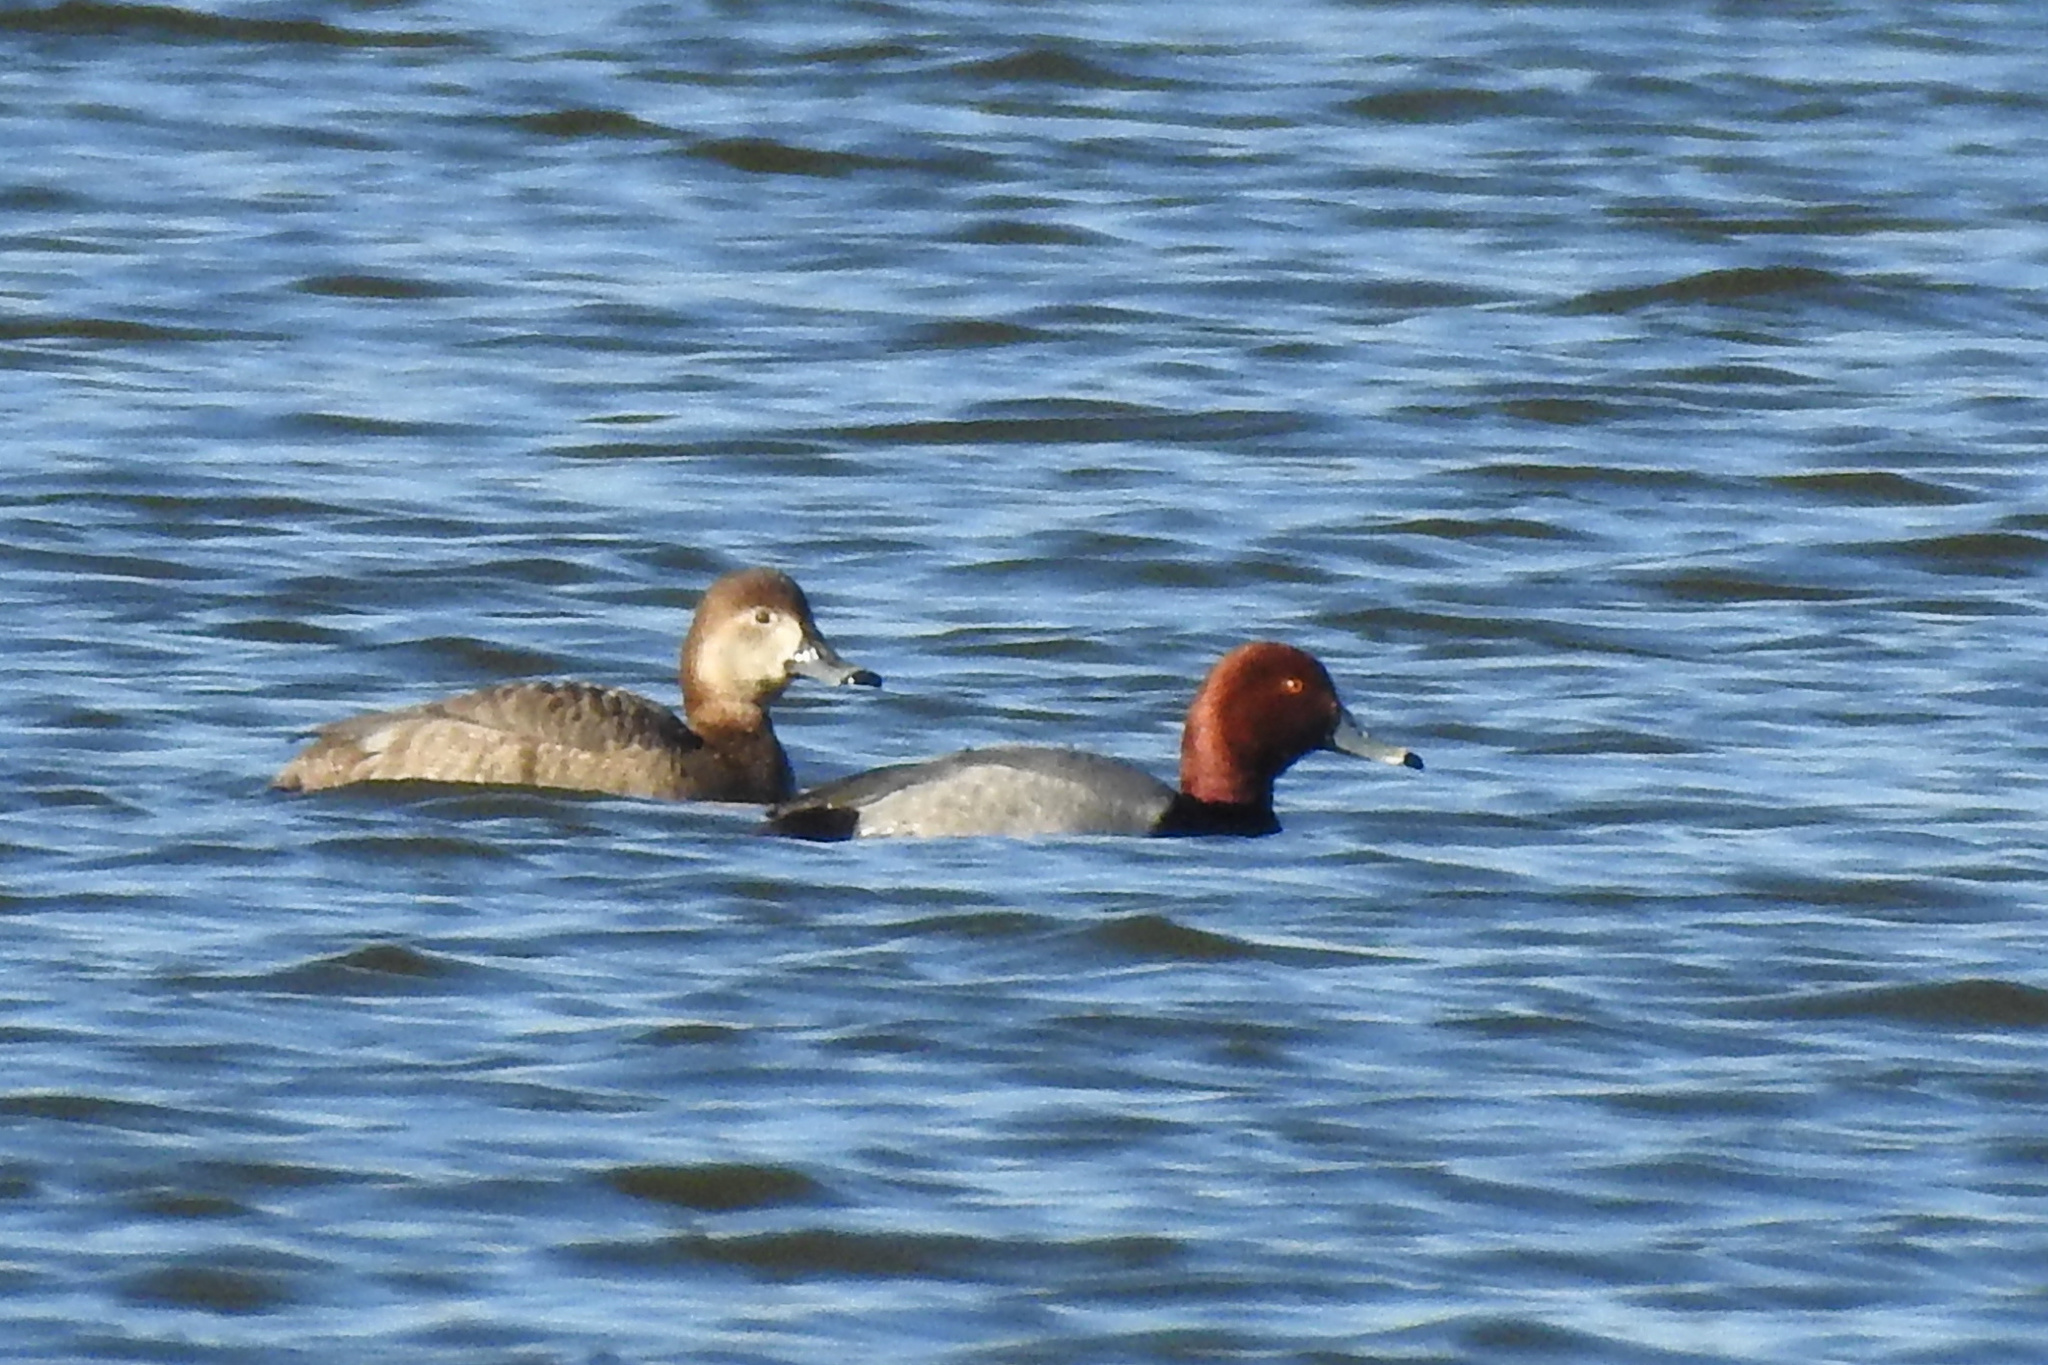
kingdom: Animalia
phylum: Chordata
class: Aves
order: Anseriformes
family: Anatidae
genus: Aythya
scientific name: Aythya americana
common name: Redhead
